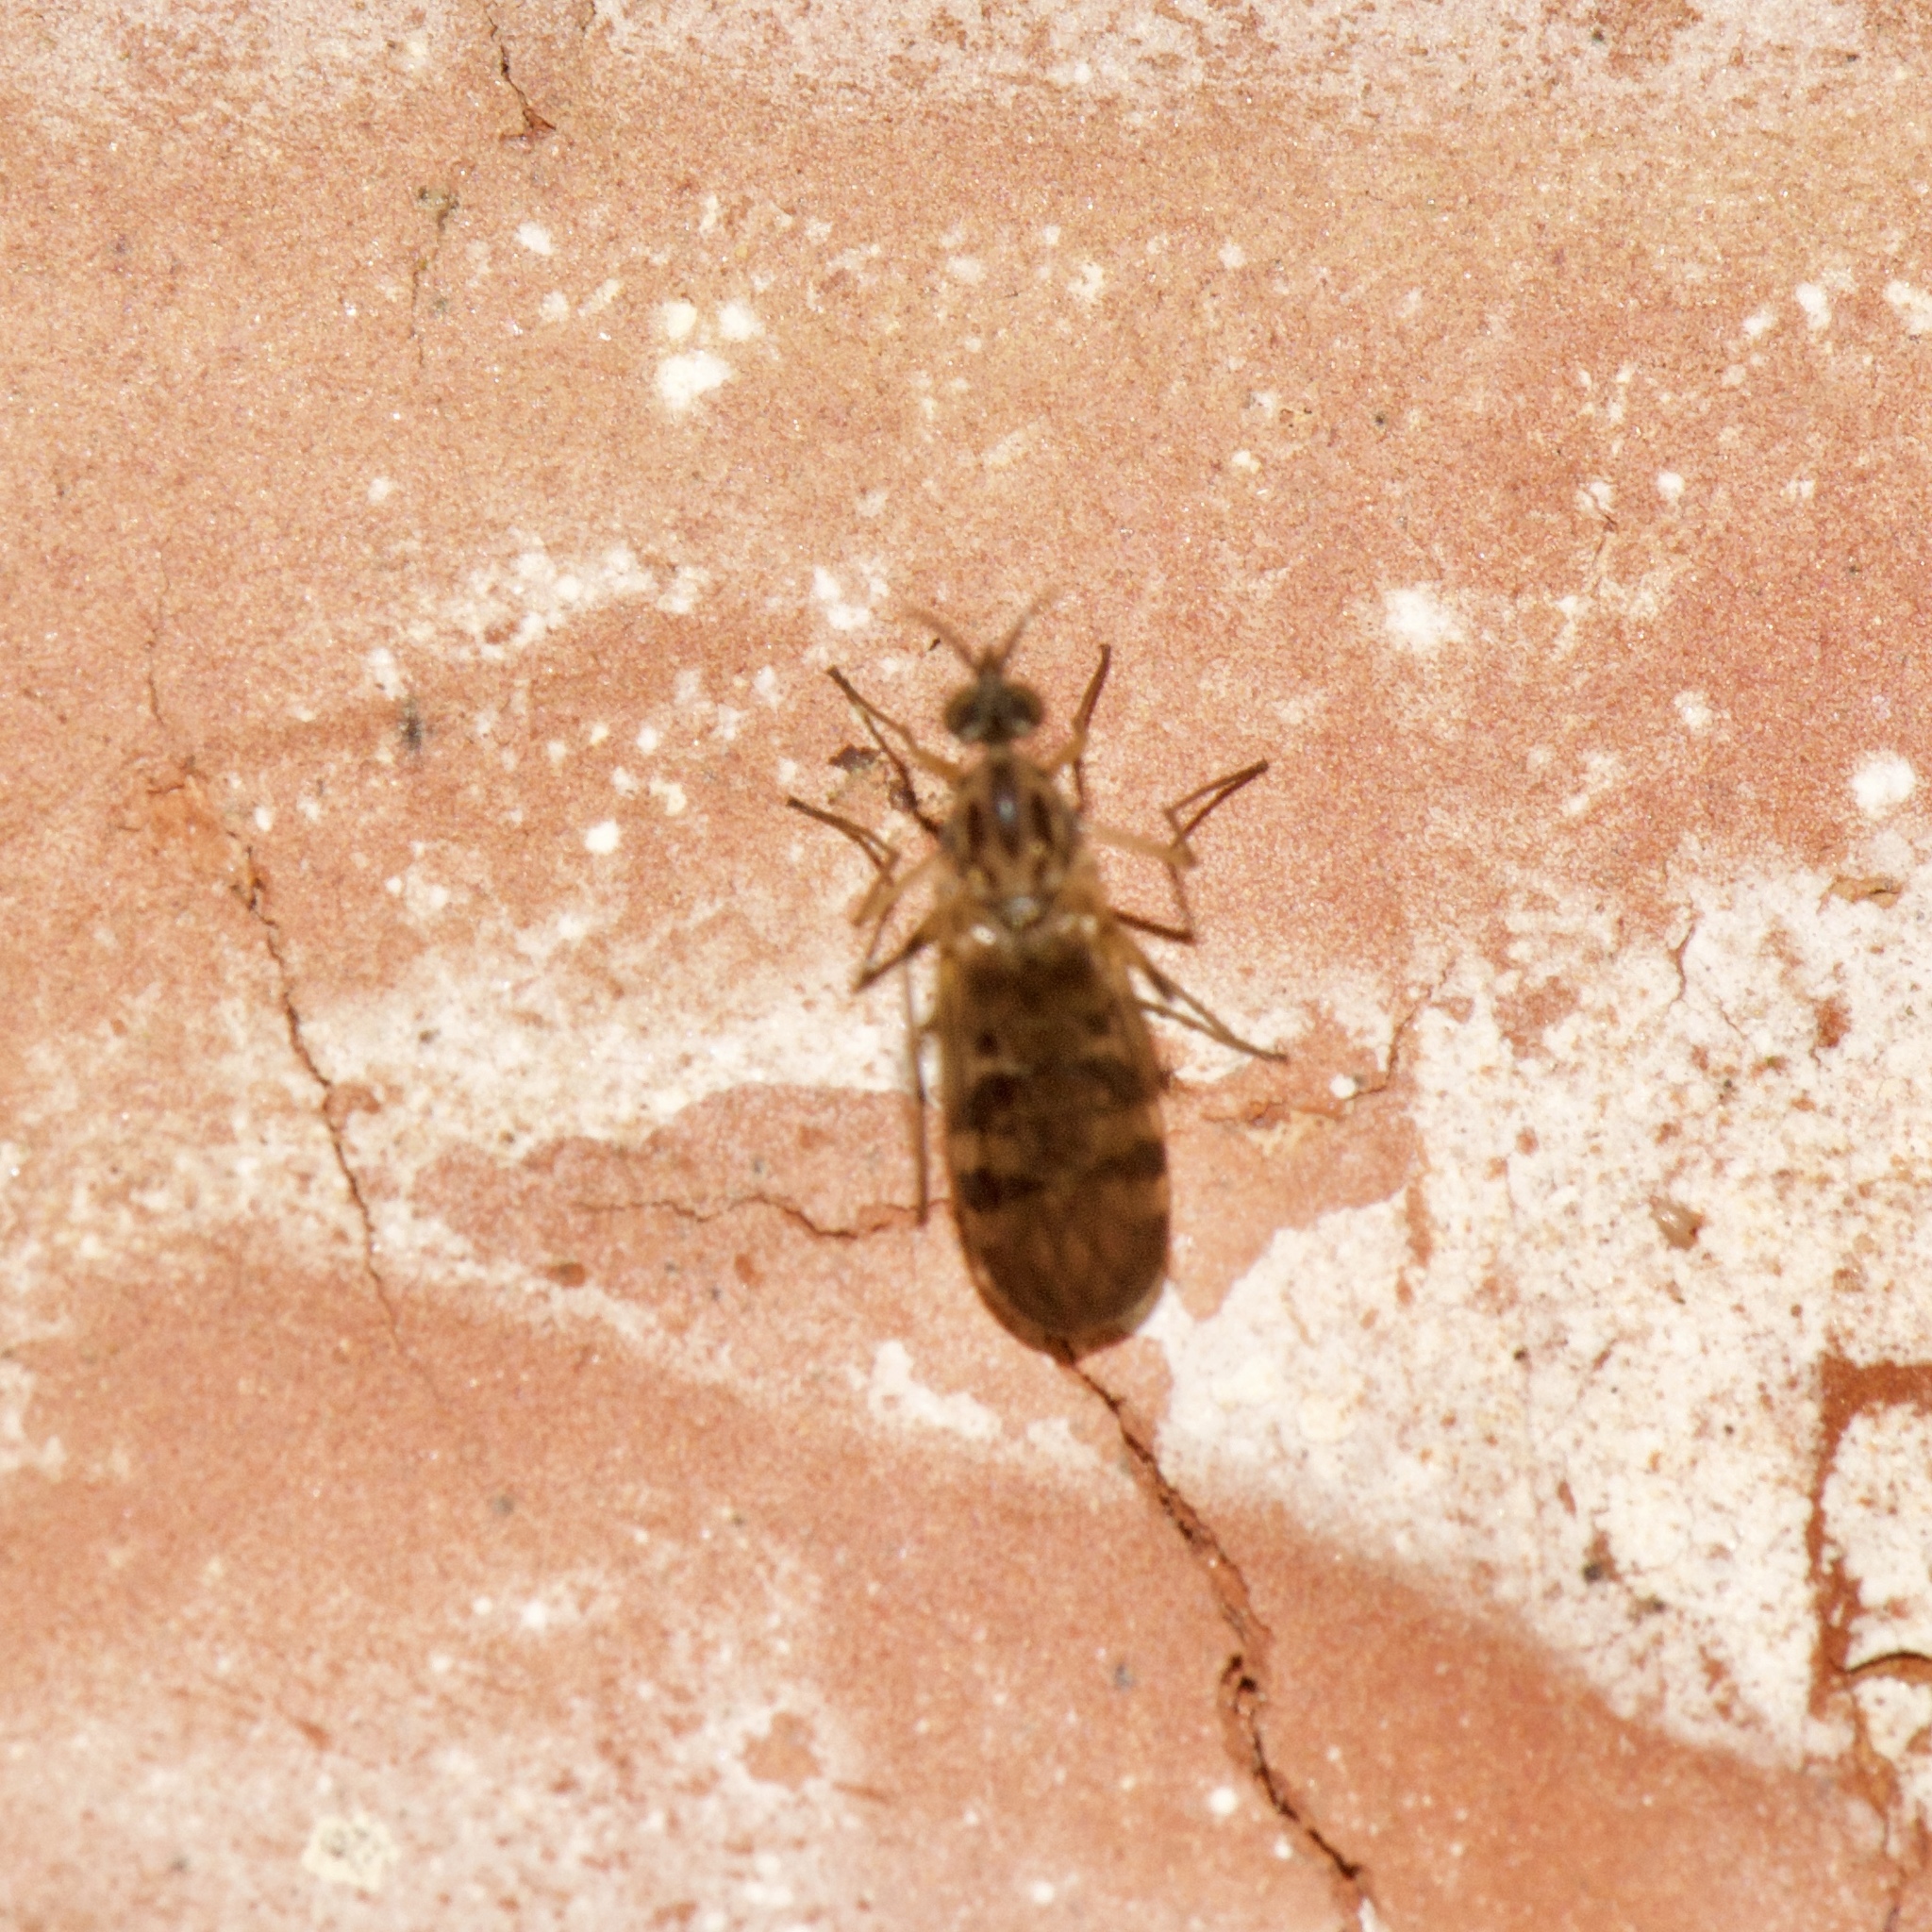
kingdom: Animalia
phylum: Arthropoda
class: Insecta
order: Diptera
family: Anisopodidae
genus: Sylvicola
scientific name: Sylvicola notialis
